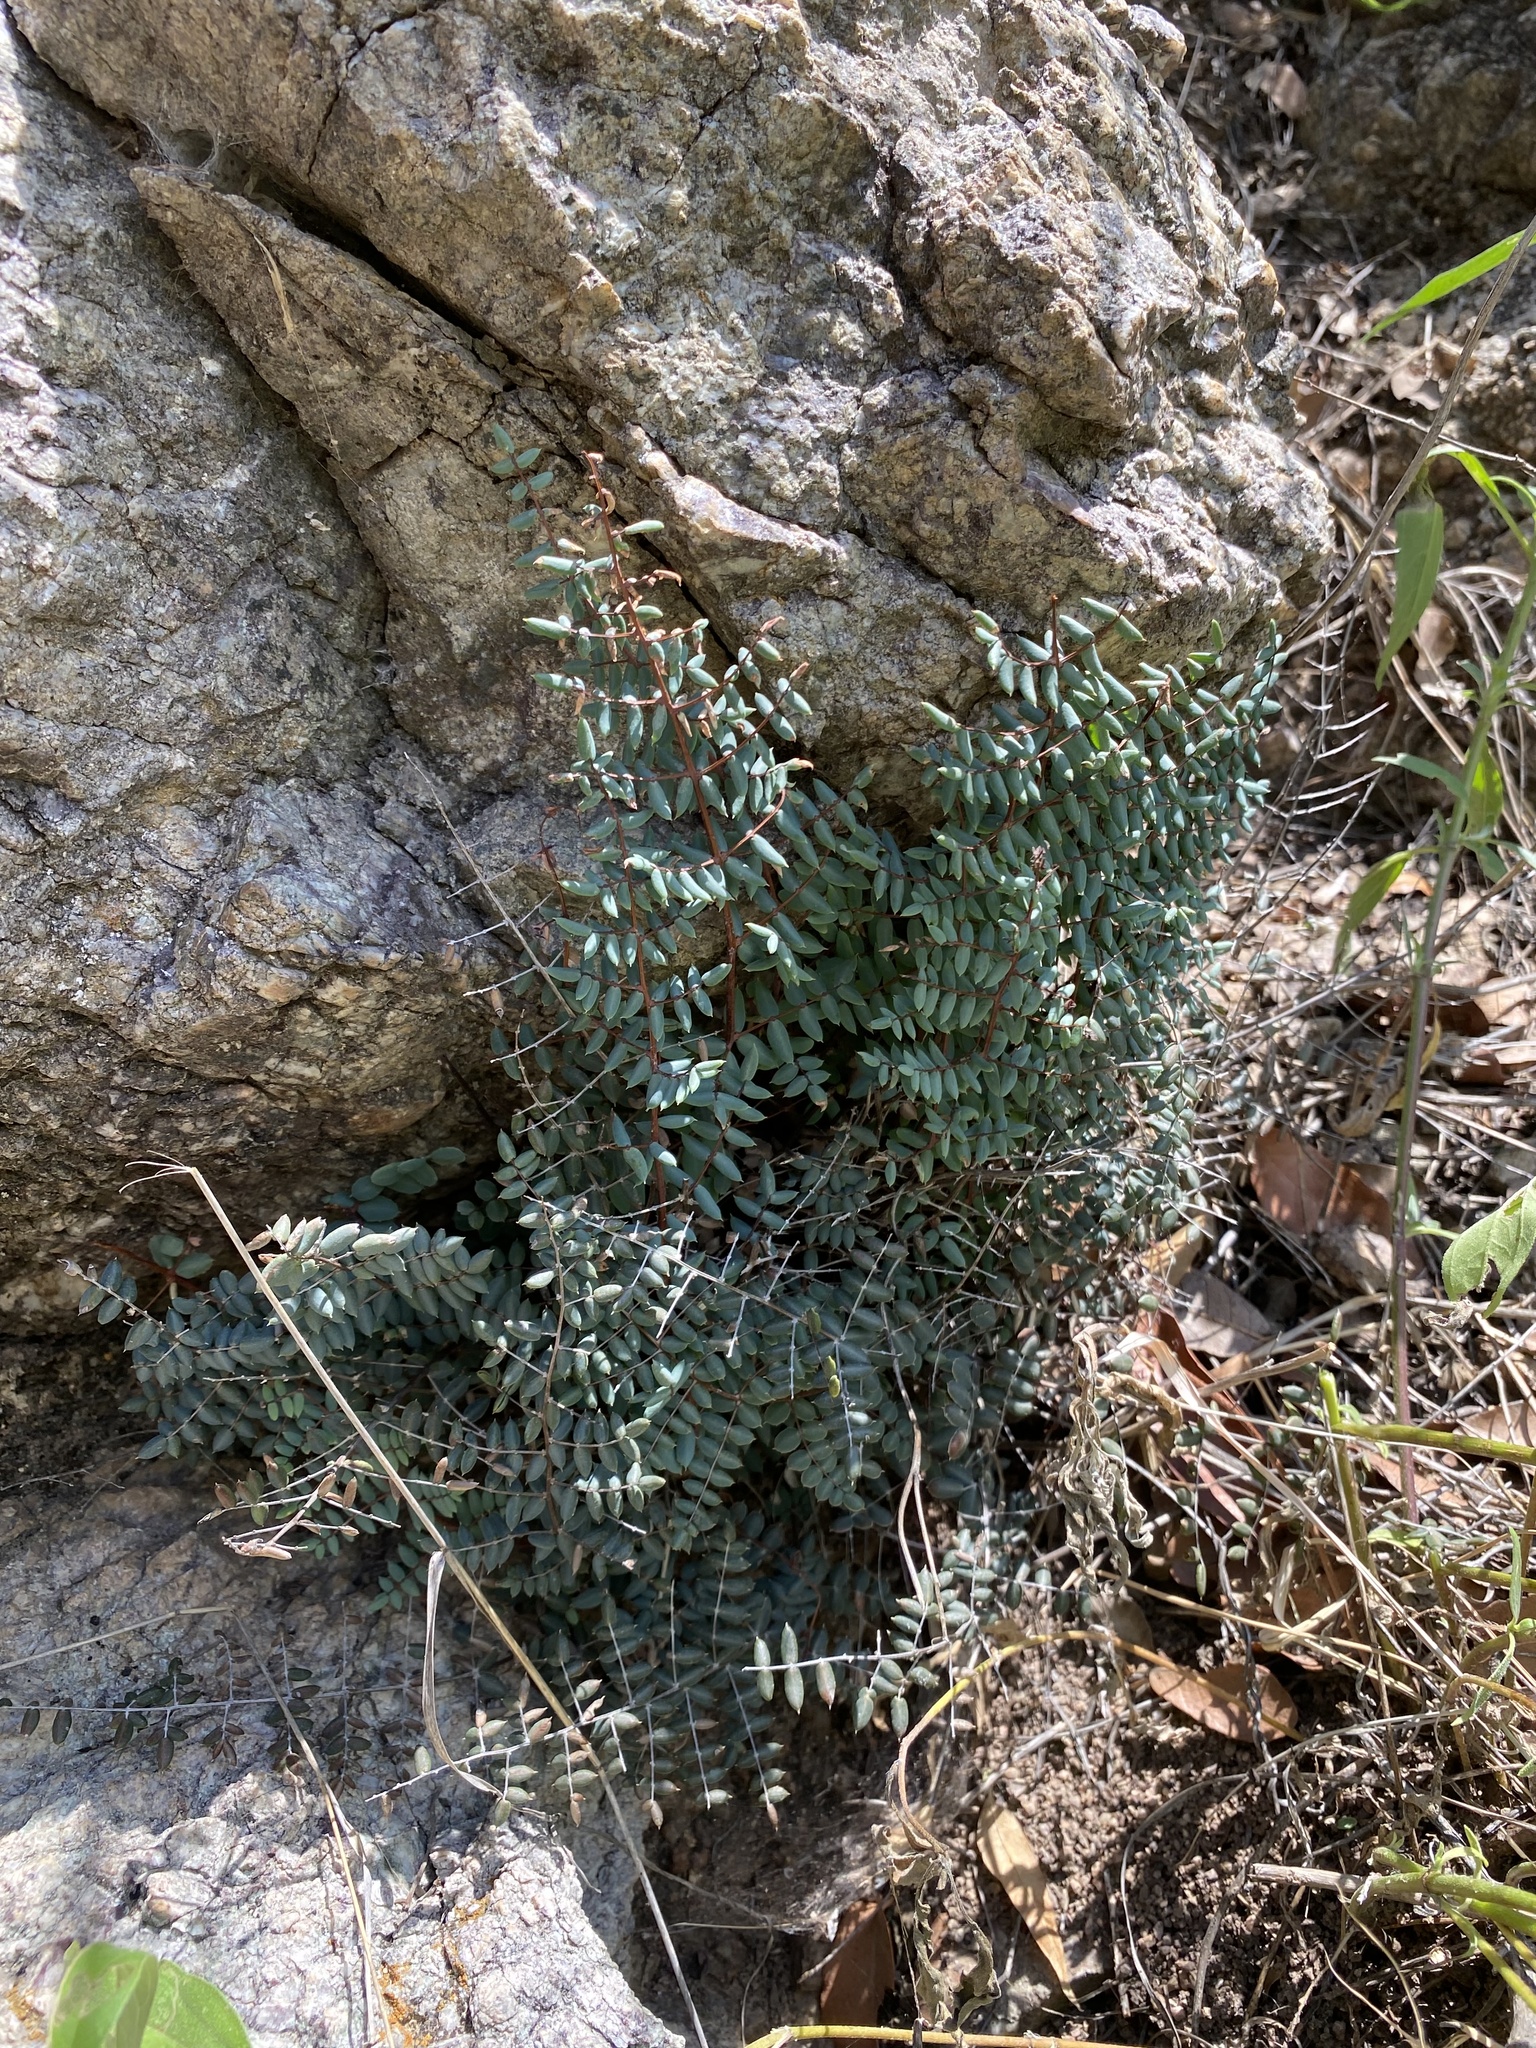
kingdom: Plantae
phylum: Tracheophyta
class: Polypodiopsida
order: Polypodiales
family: Pteridaceae
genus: Pellaea
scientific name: Pellaea truncata
